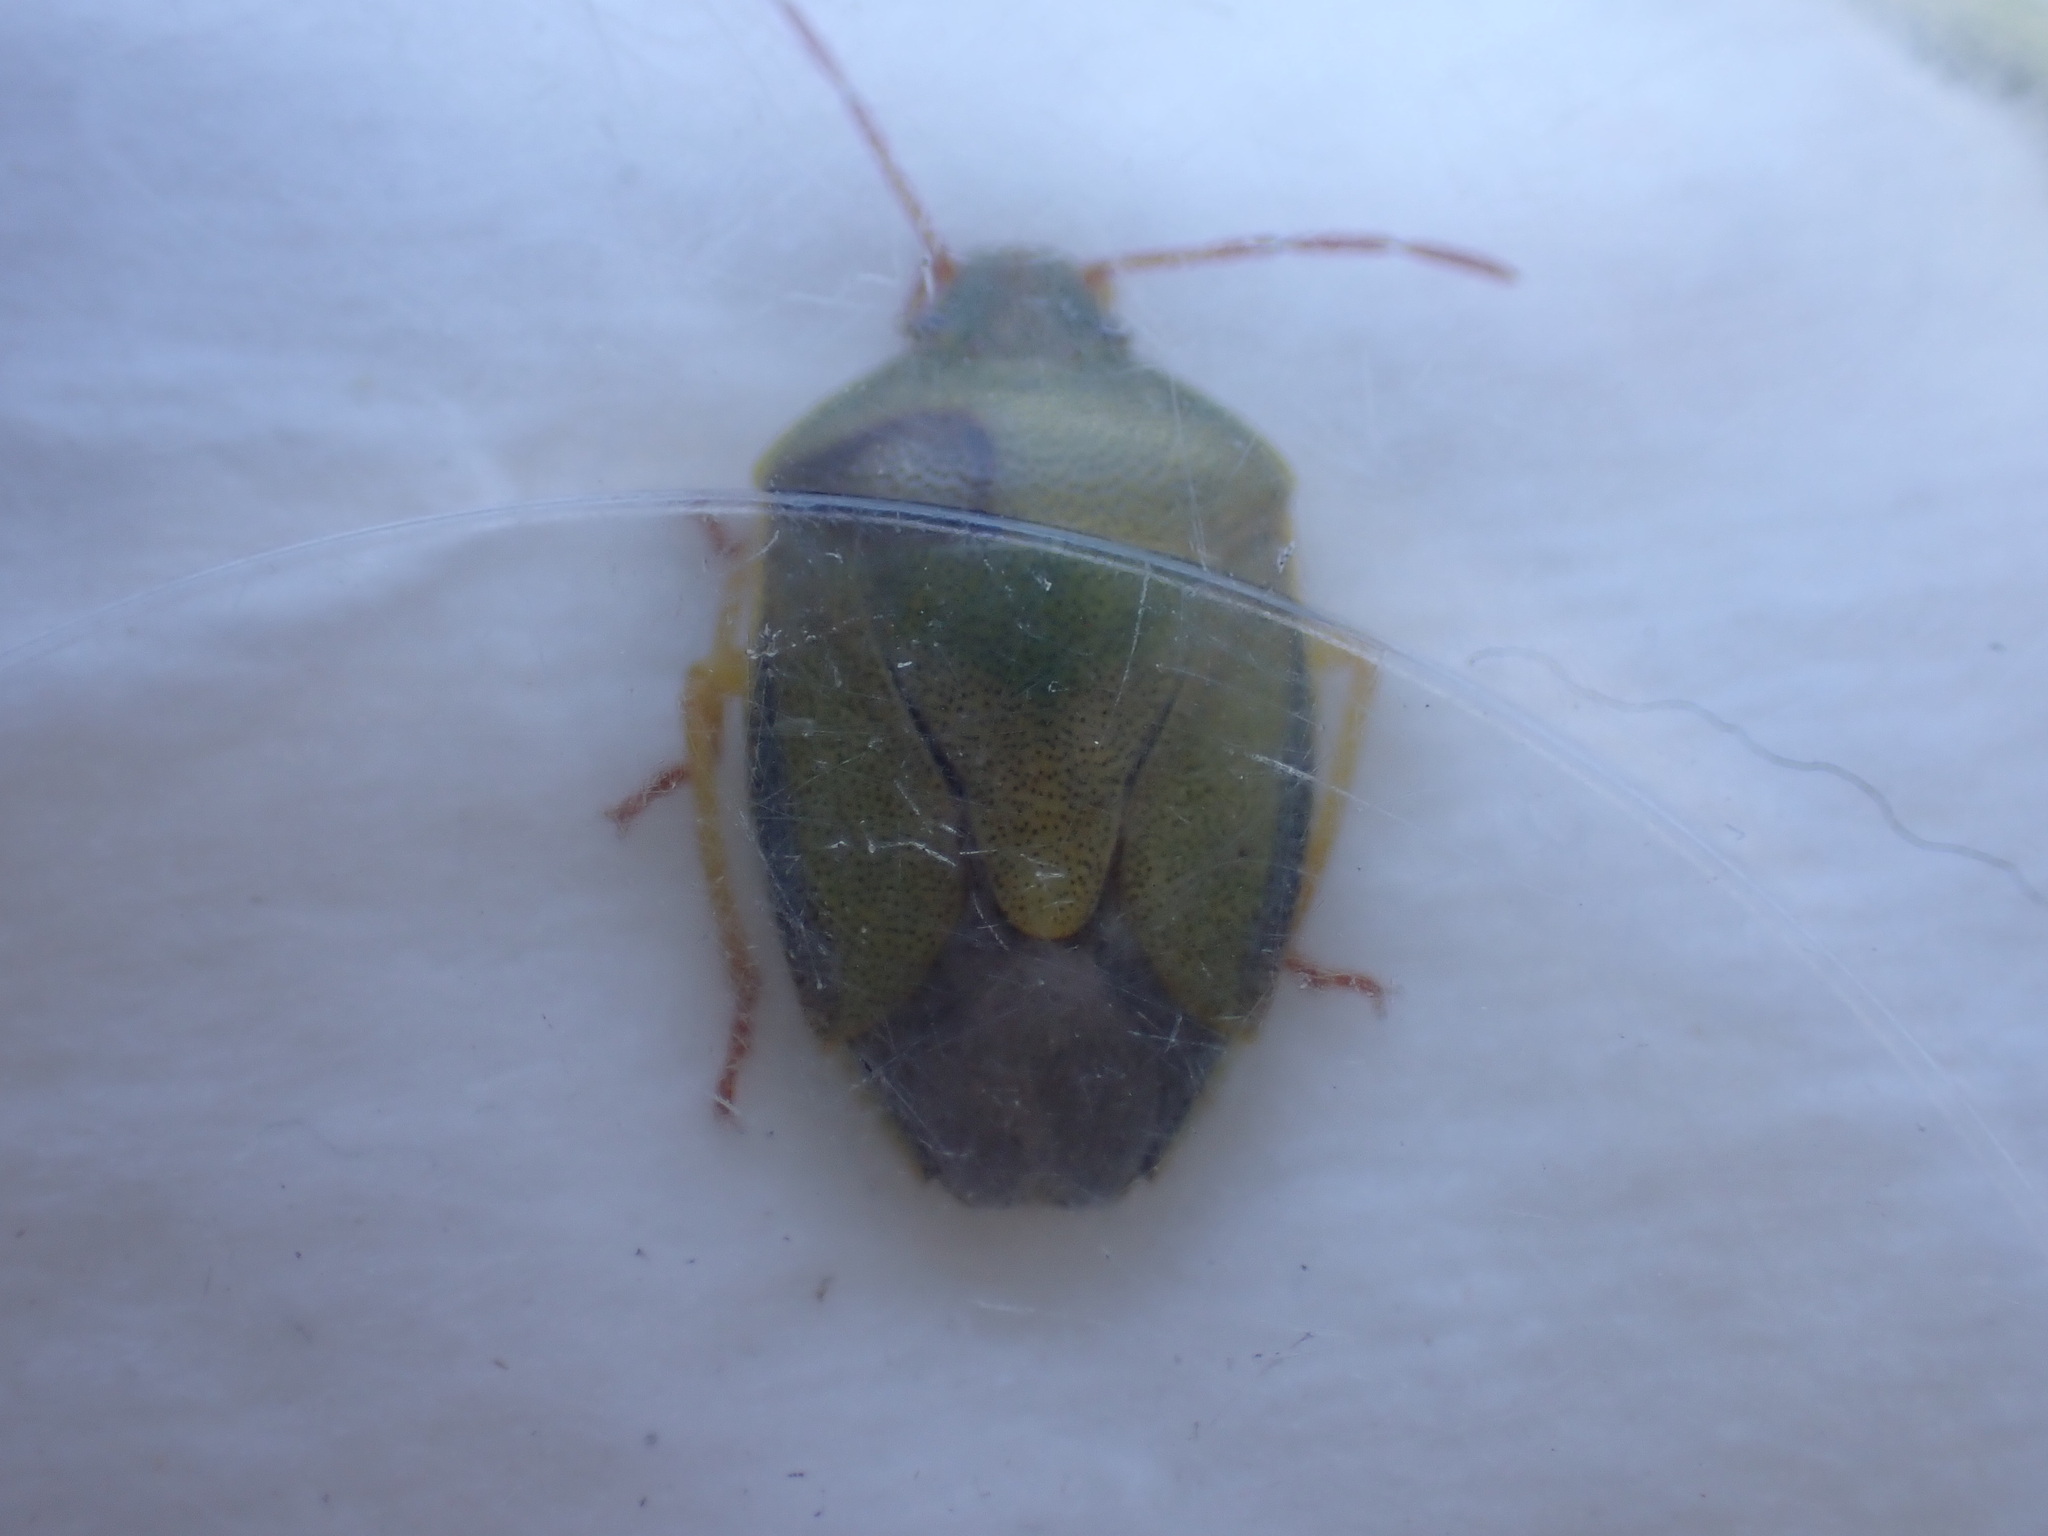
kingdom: Animalia
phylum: Arthropoda
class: Insecta
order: Hemiptera
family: Pentatomidae
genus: Piezodorus
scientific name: Piezodorus lituratus
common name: Stink bug
